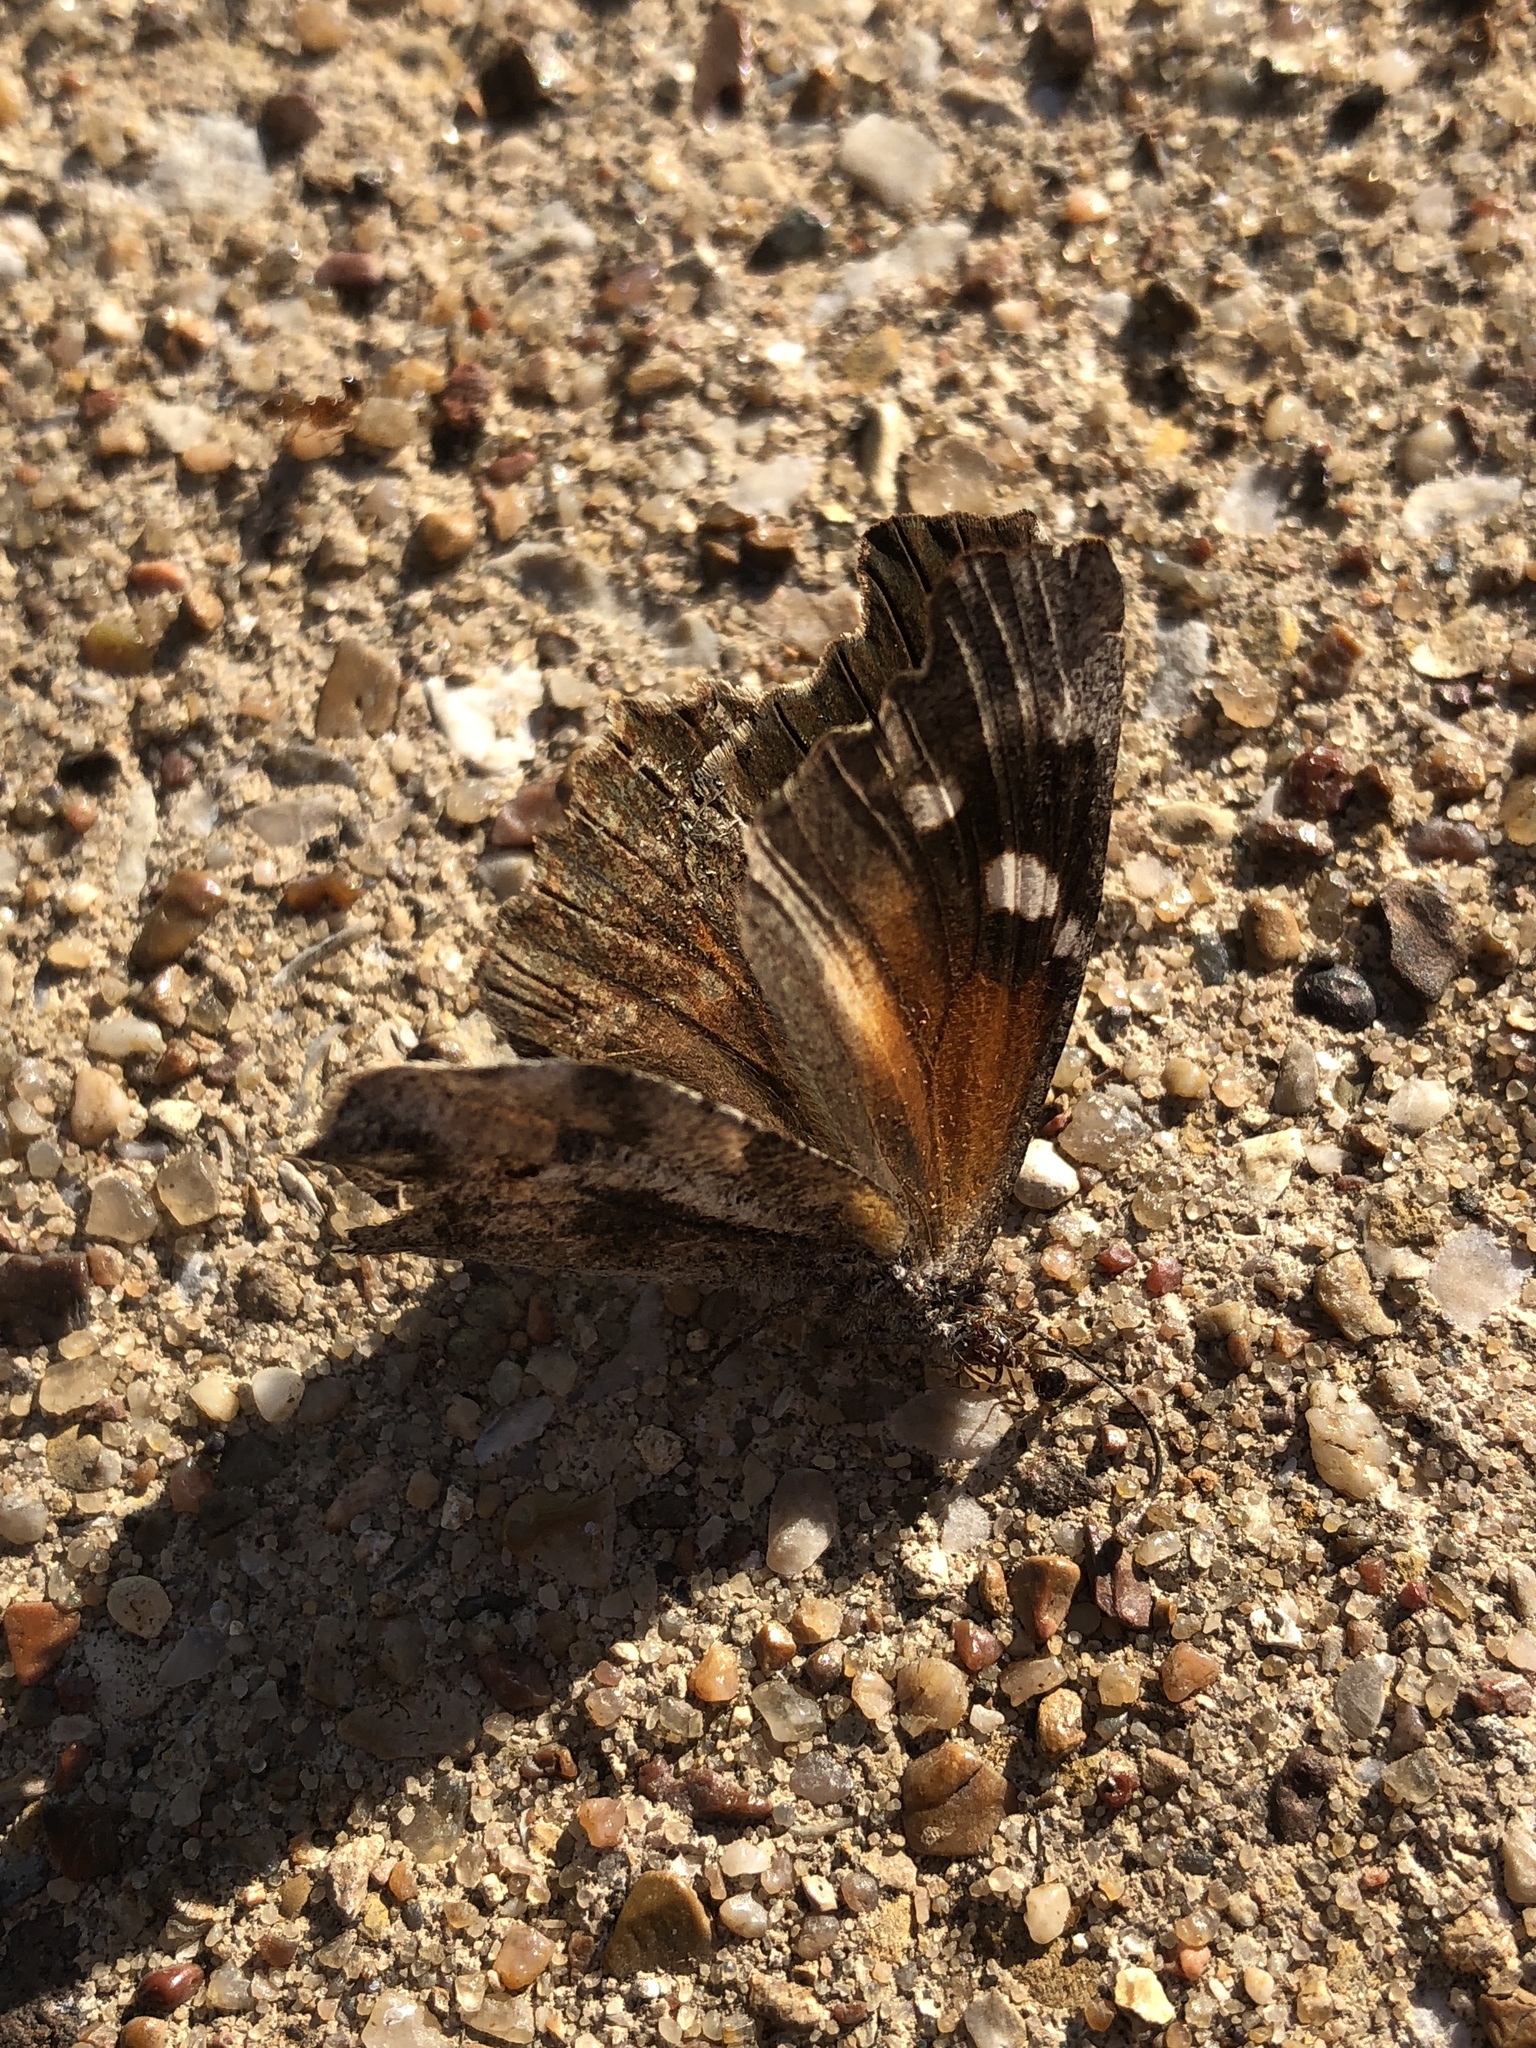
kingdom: Animalia
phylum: Arthropoda
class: Insecta
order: Lepidoptera
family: Nymphalidae
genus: Libytheana
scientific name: Libytheana carinenta
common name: American snout
